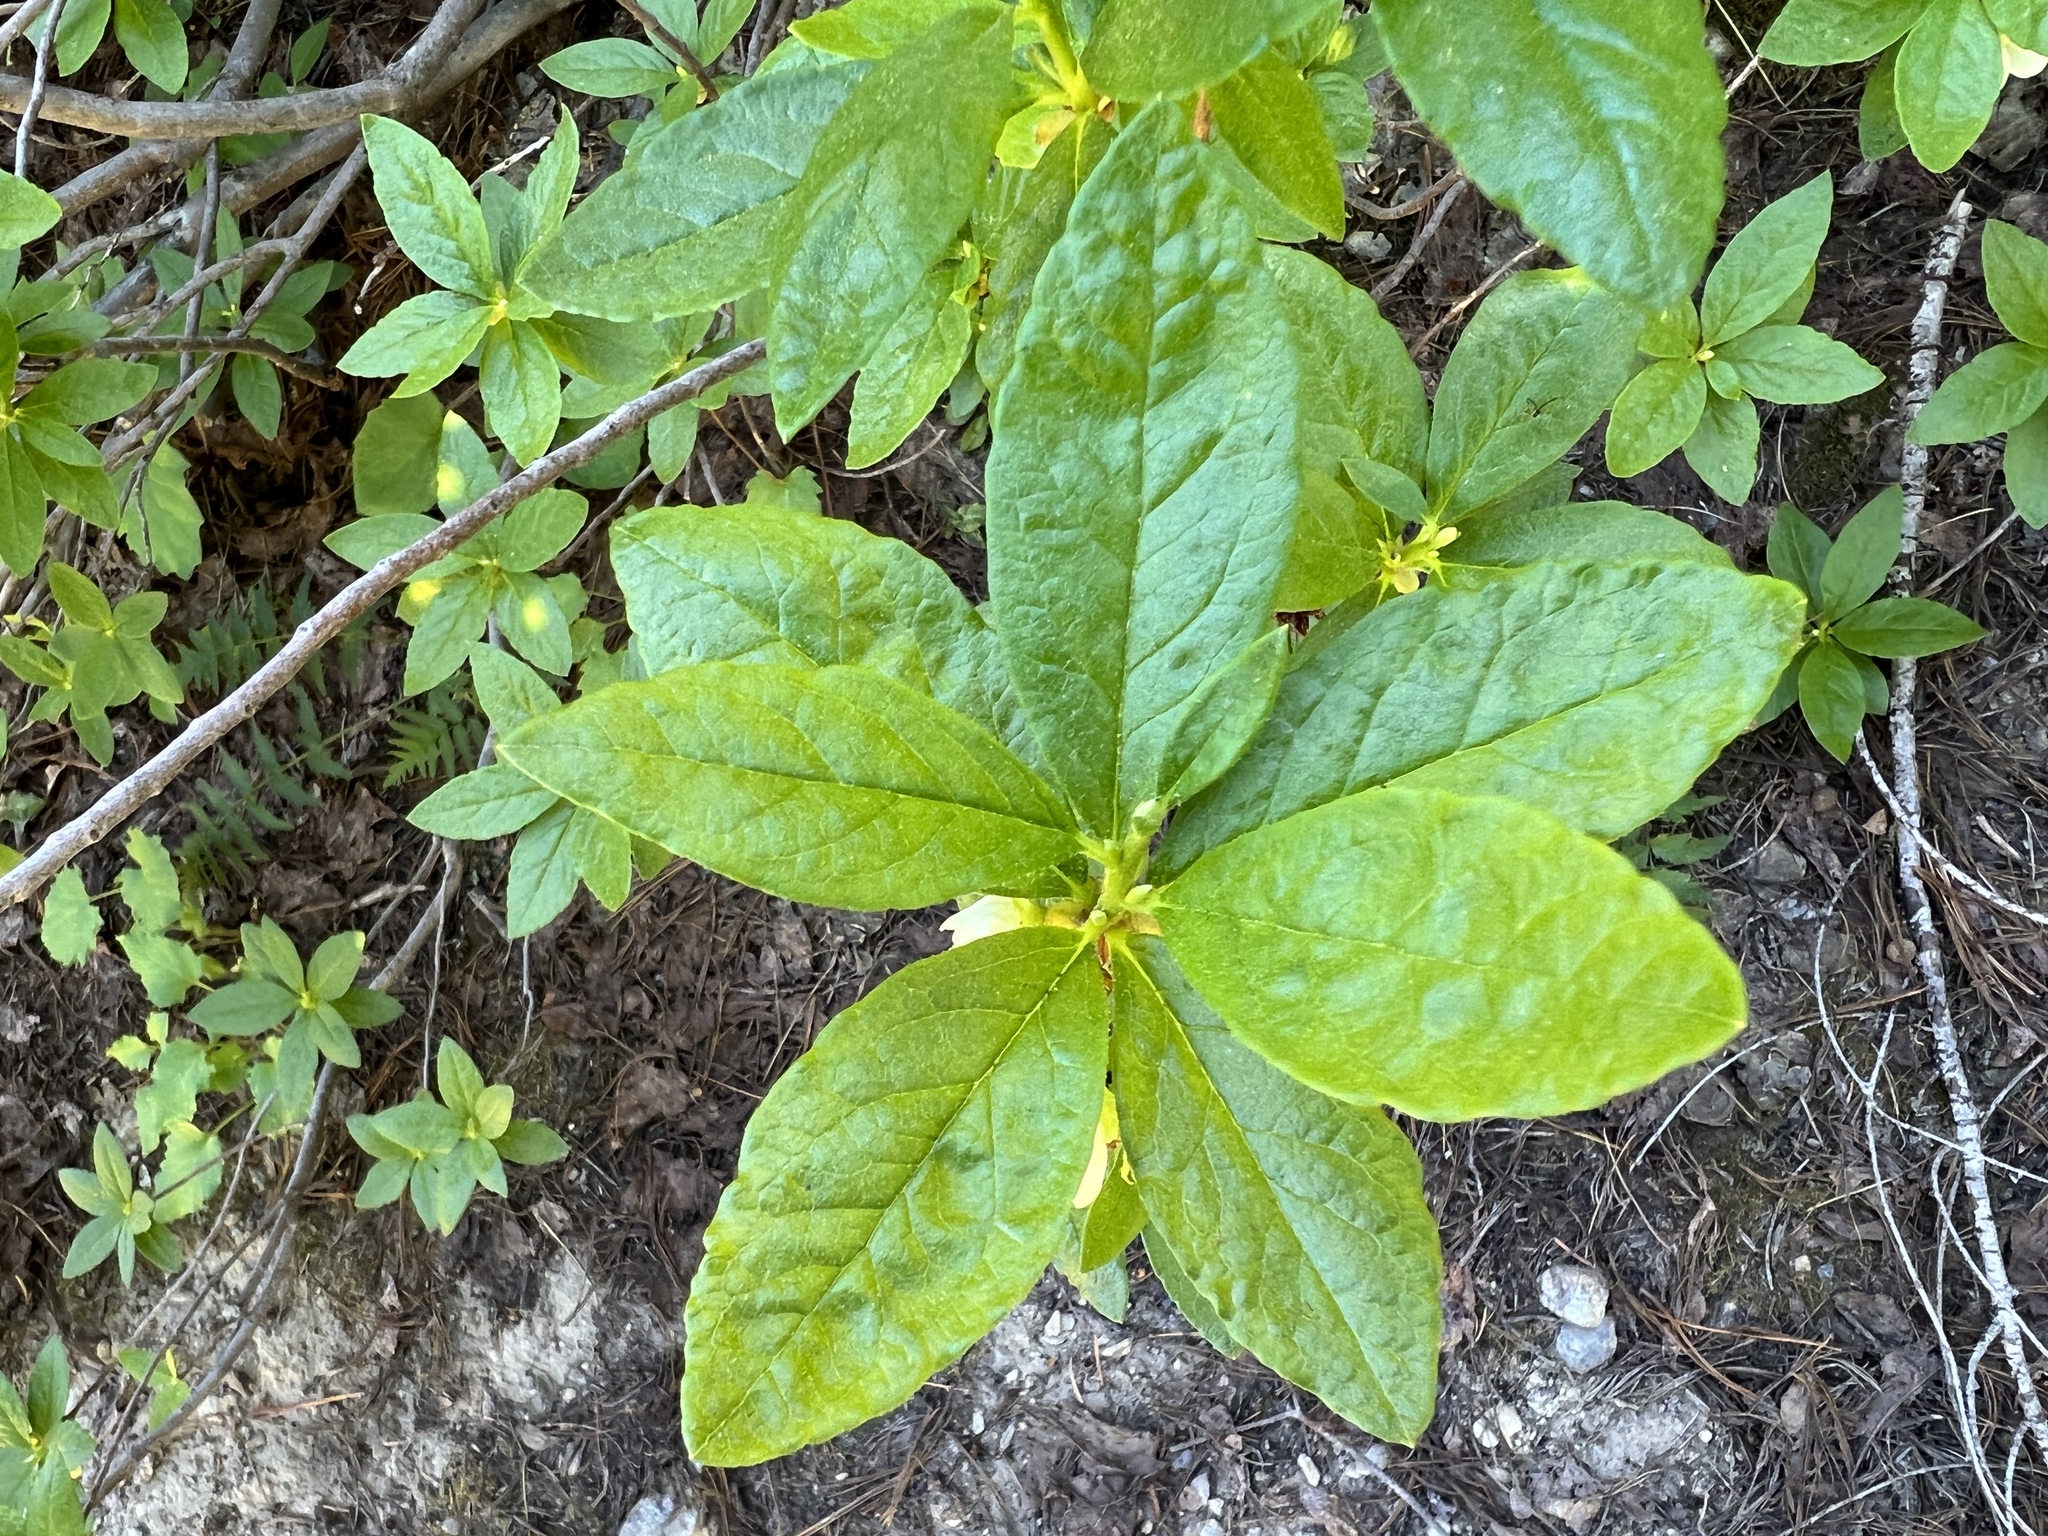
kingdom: Plantae
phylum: Tracheophyta
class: Magnoliopsida
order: Ericales
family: Ericaceae
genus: Rhododendron
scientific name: Rhododendron albiflorum
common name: White rhododendron
